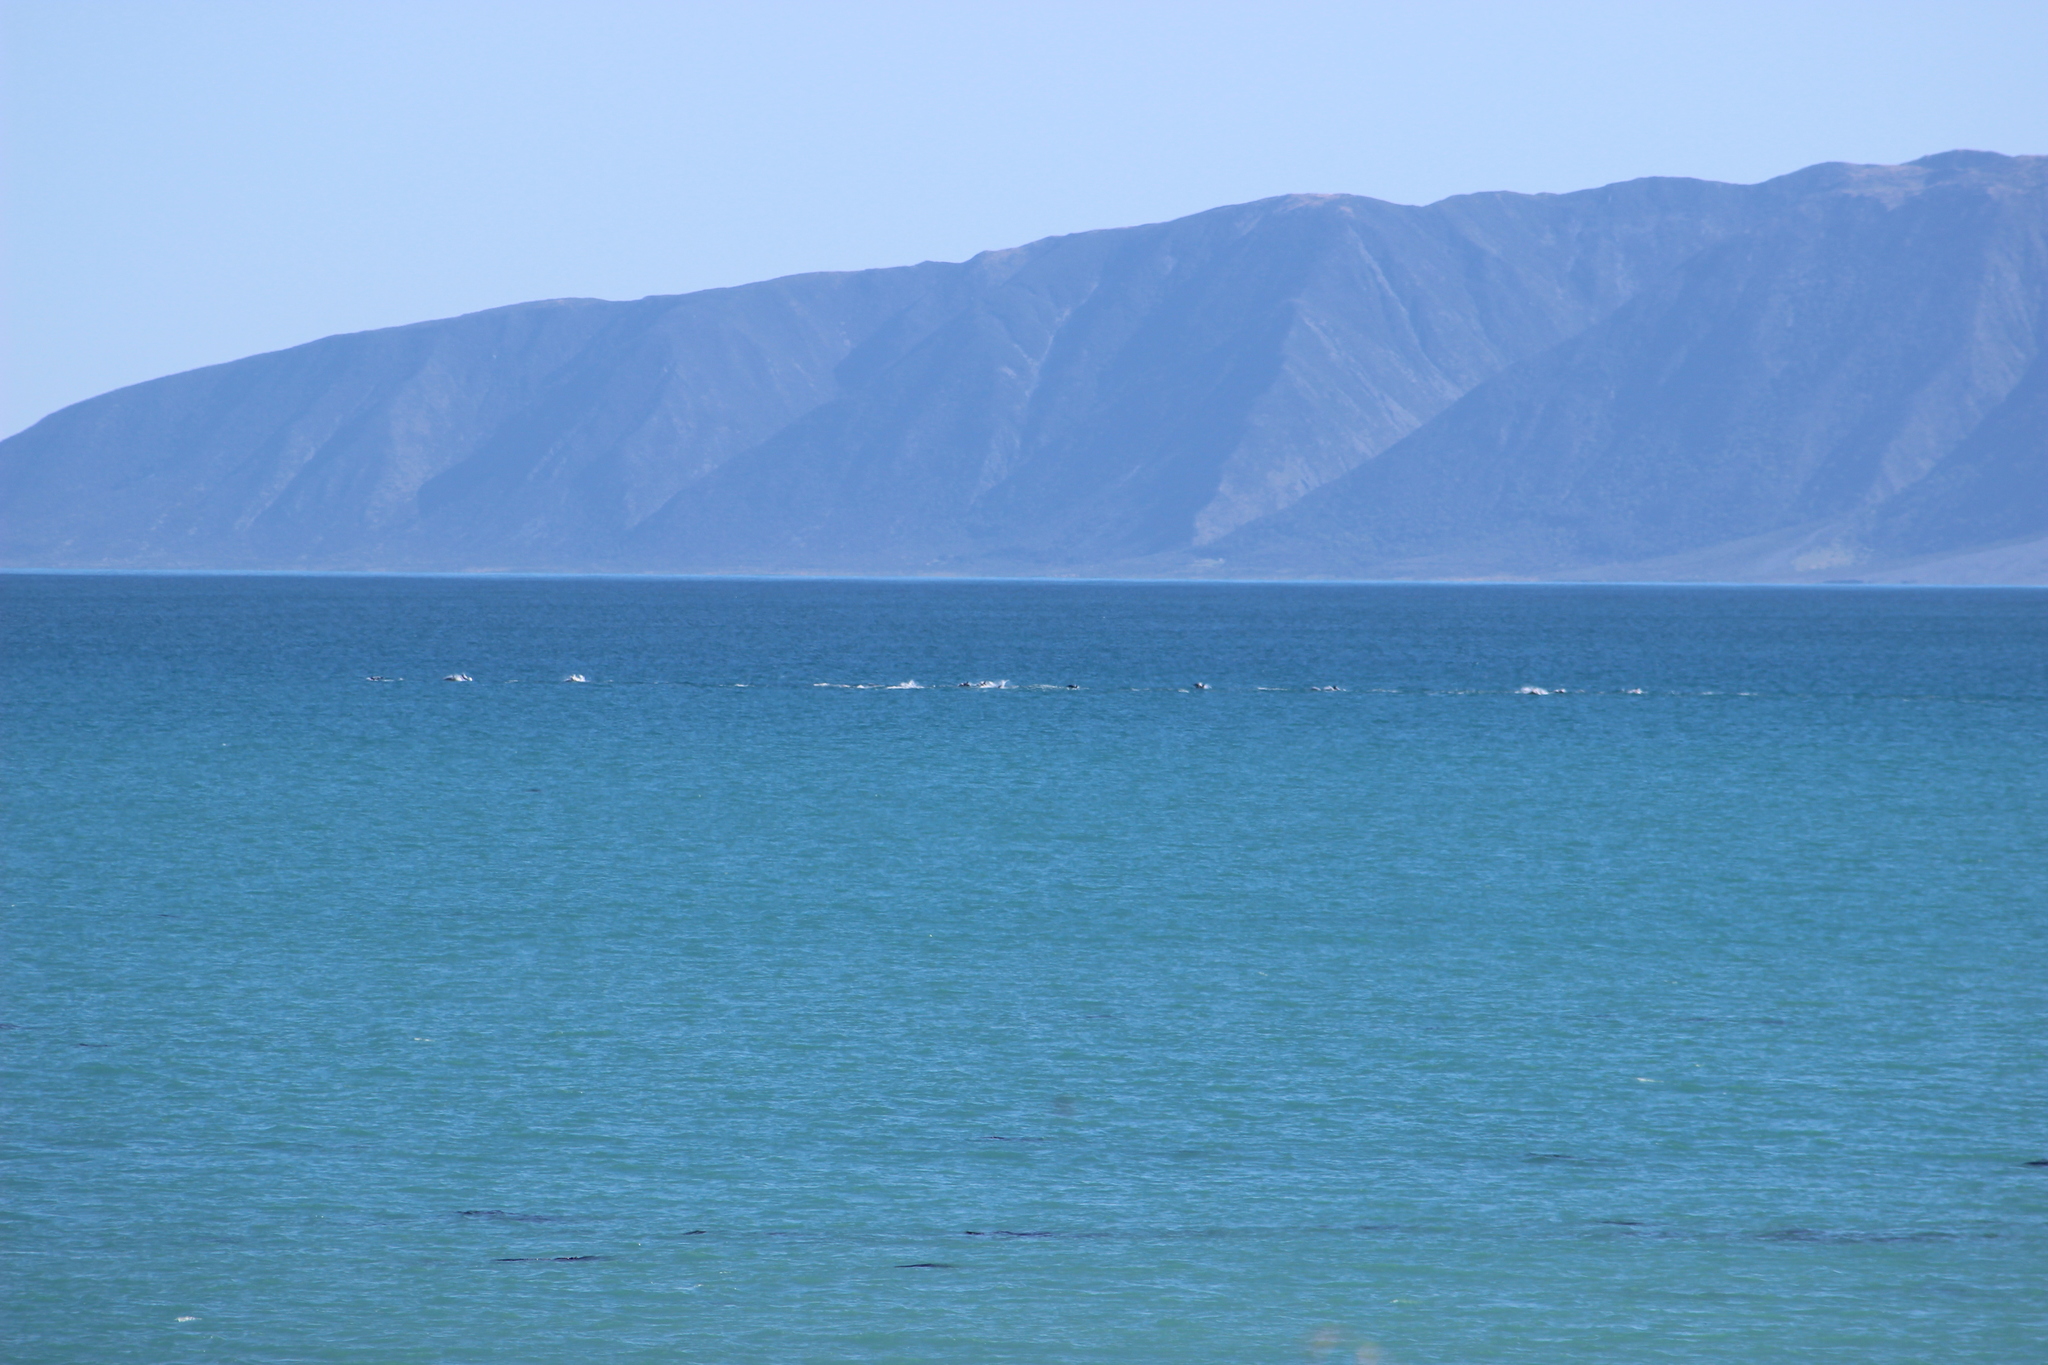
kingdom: Animalia
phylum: Chordata
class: Mammalia
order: Cetacea
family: Delphinidae
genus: Delphinus
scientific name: Delphinus delphis
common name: Common dolphin
